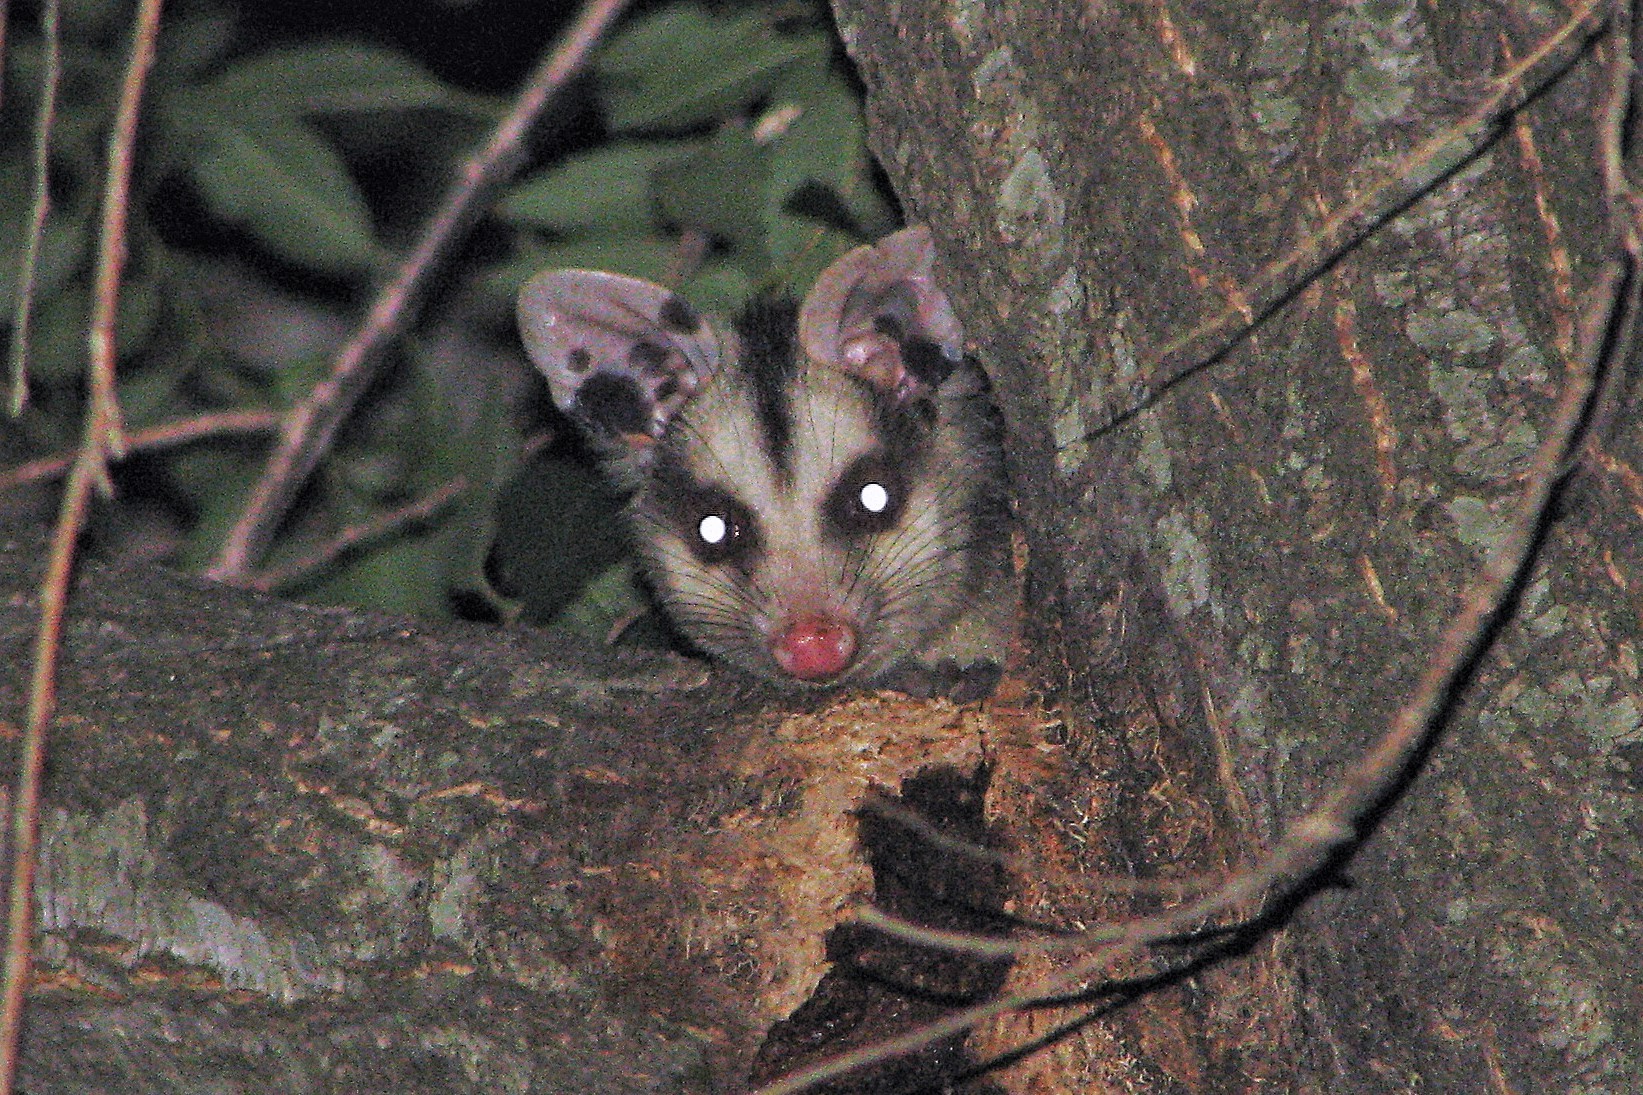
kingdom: Animalia
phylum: Chordata
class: Mammalia
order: Didelphimorphia
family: Didelphidae
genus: Didelphis
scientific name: Didelphis albiventris
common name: White-eared opossum
